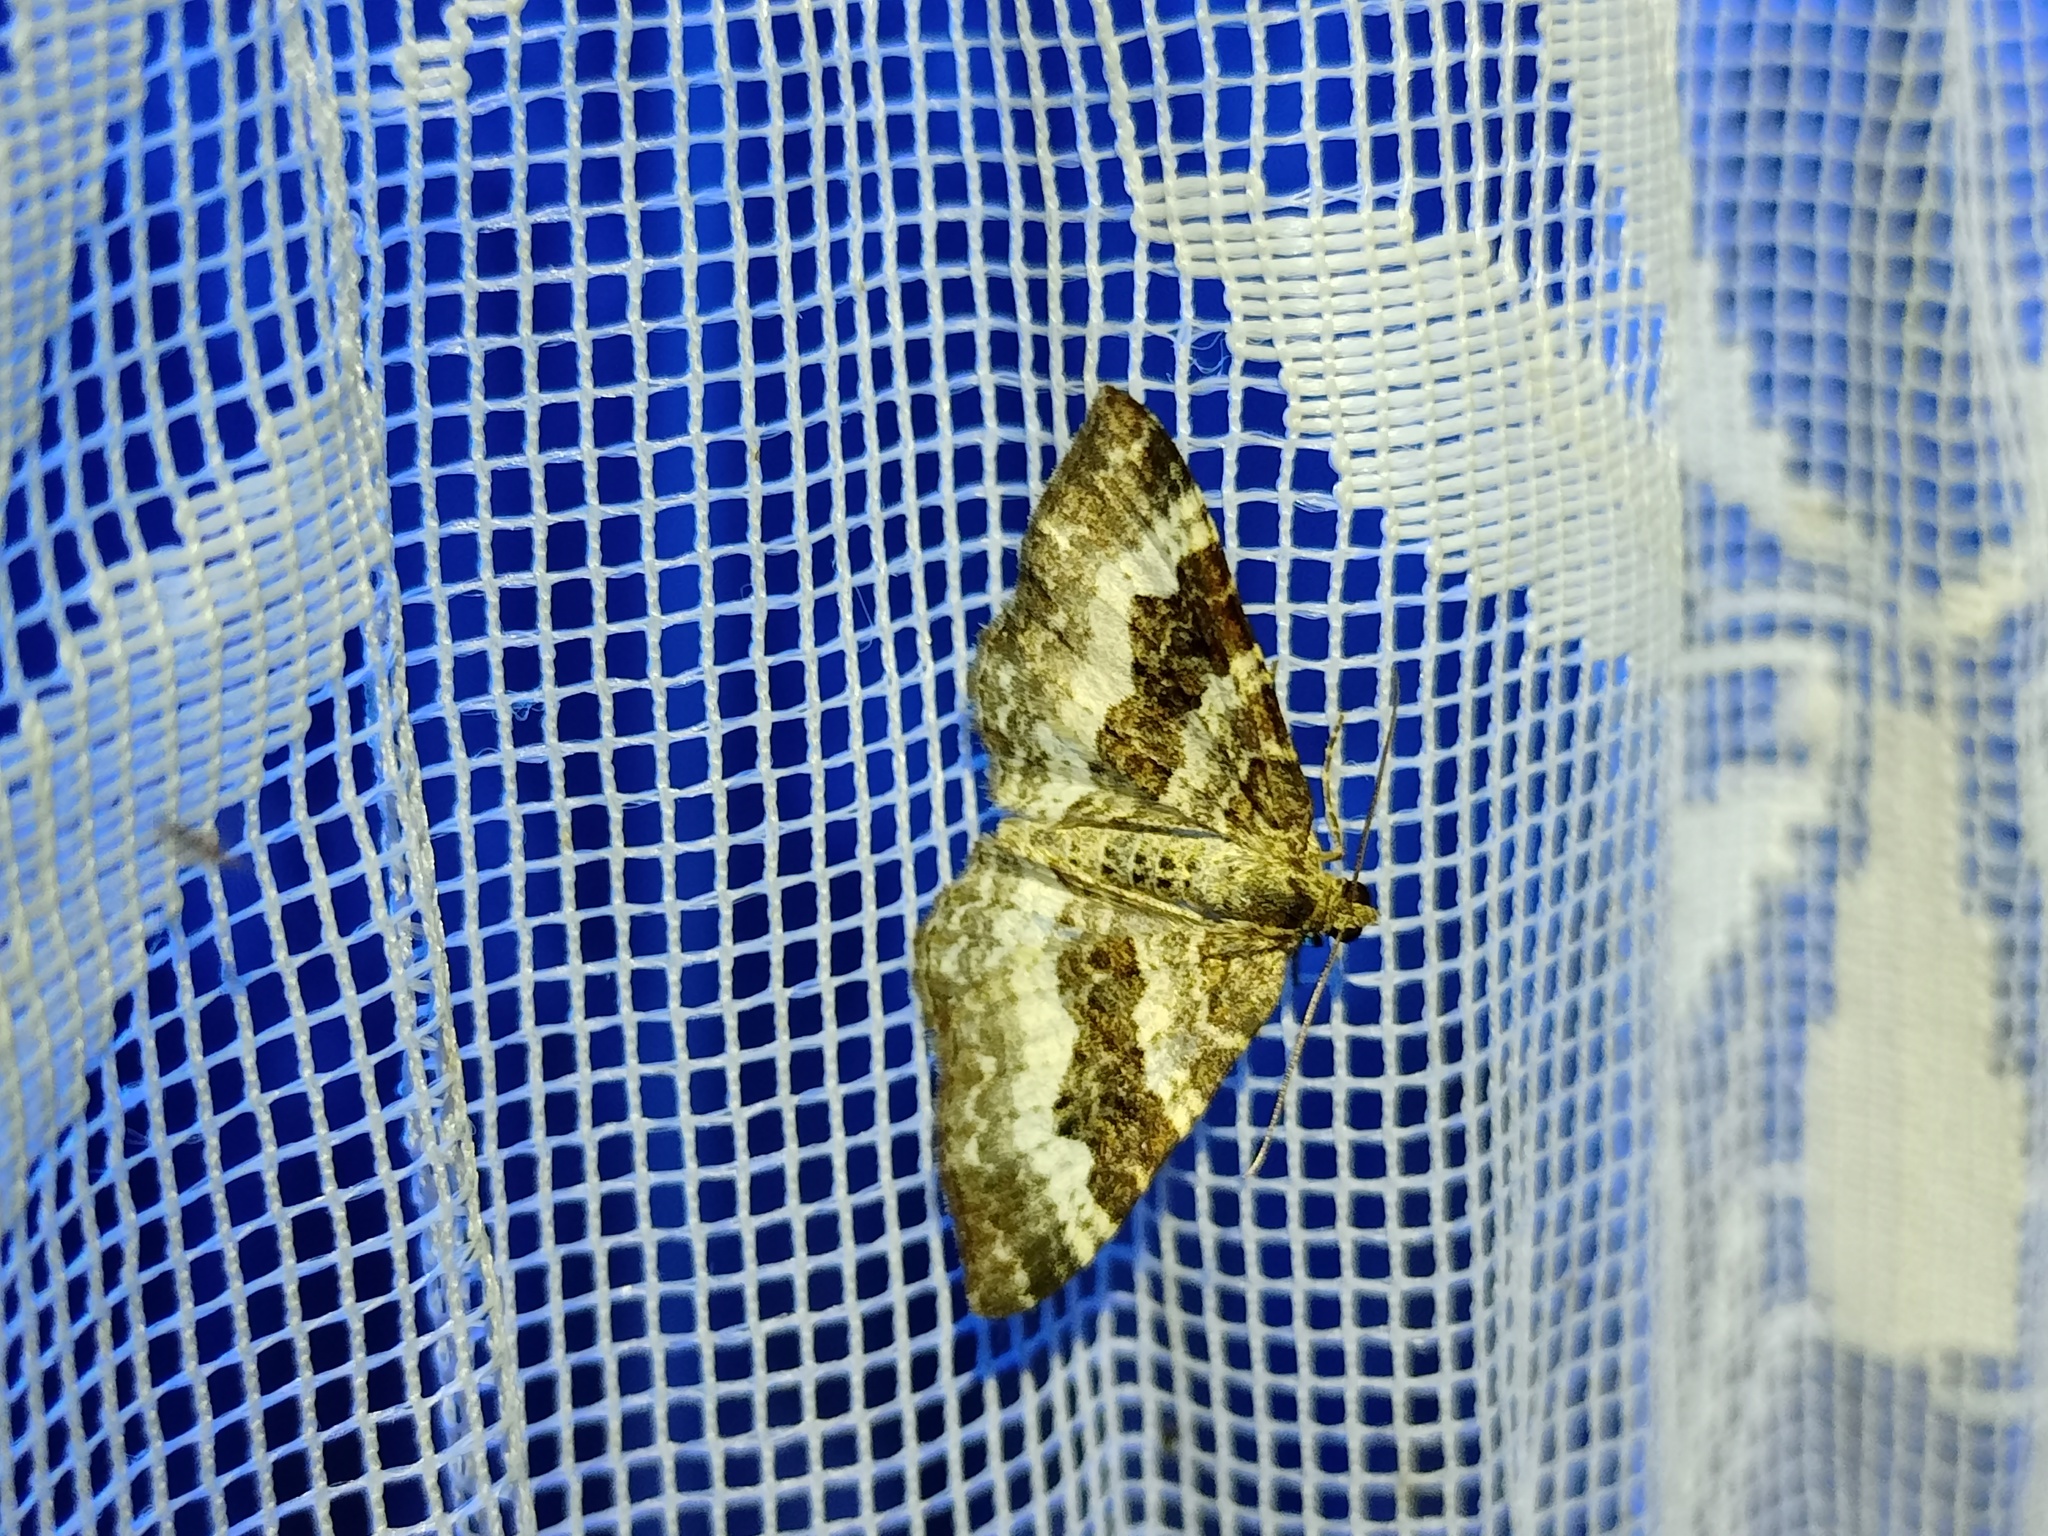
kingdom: Animalia
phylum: Arthropoda
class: Insecta
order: Lepidoptera
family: Geometridae
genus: Epirrhoe
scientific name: Epirrhoe alternata
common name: Common carpet
